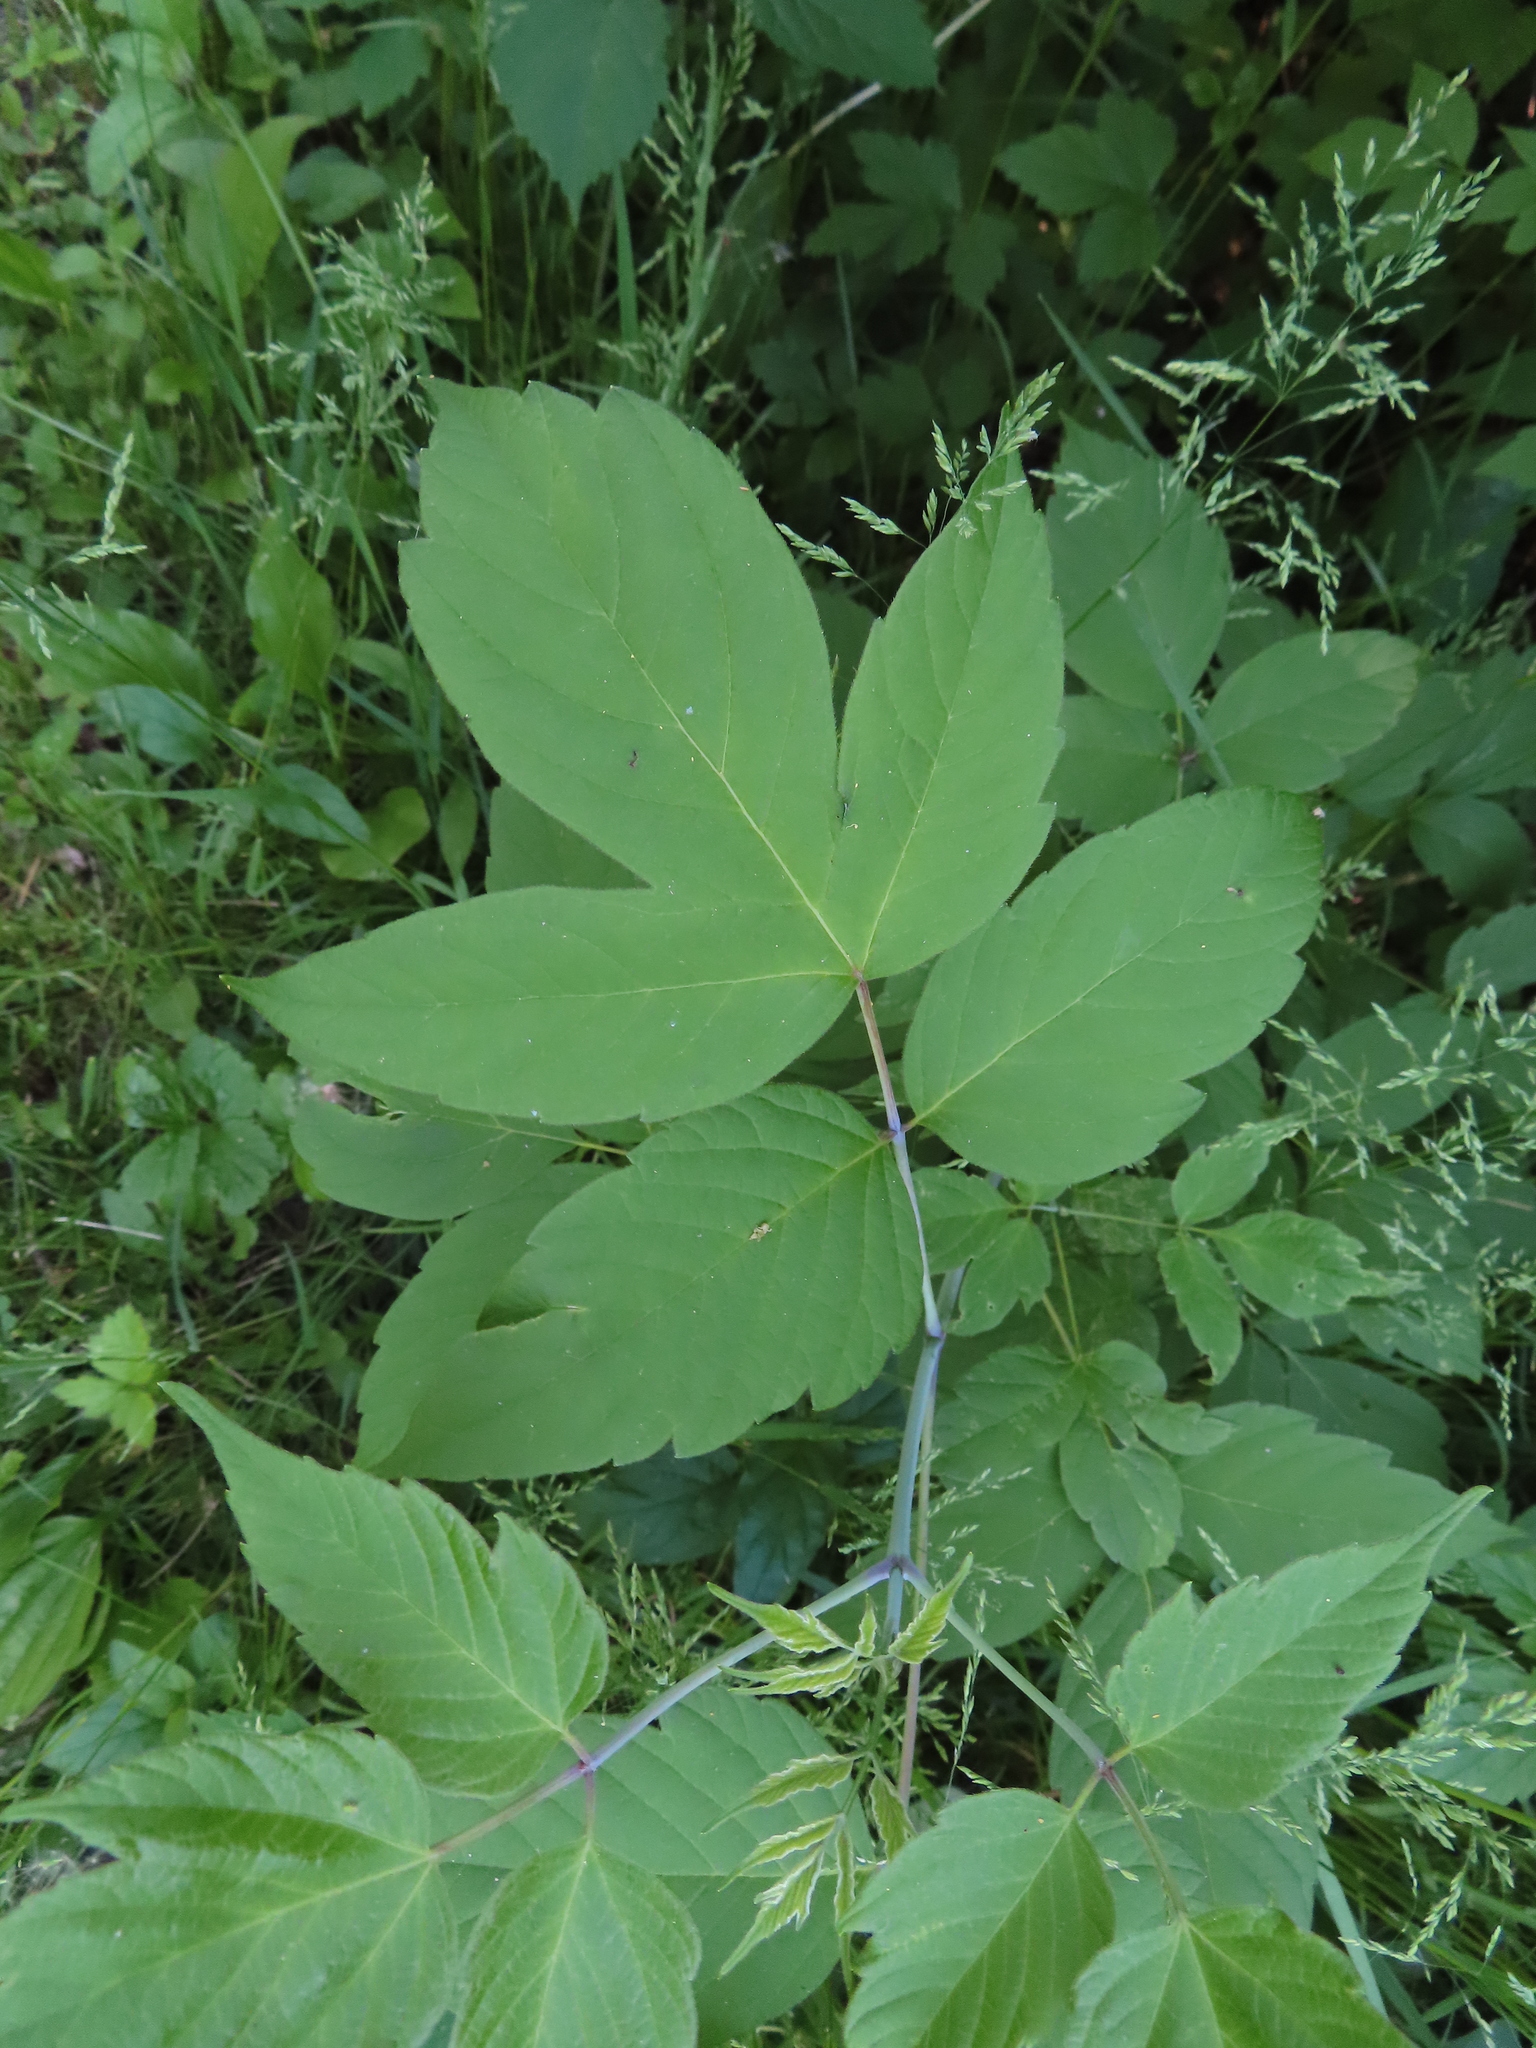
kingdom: Plantae
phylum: Tracheophyta
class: Magnoliopsida
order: Sapindales
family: Sapindaceae
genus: Acer
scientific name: Acer negundo
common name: Ashleaf maple
